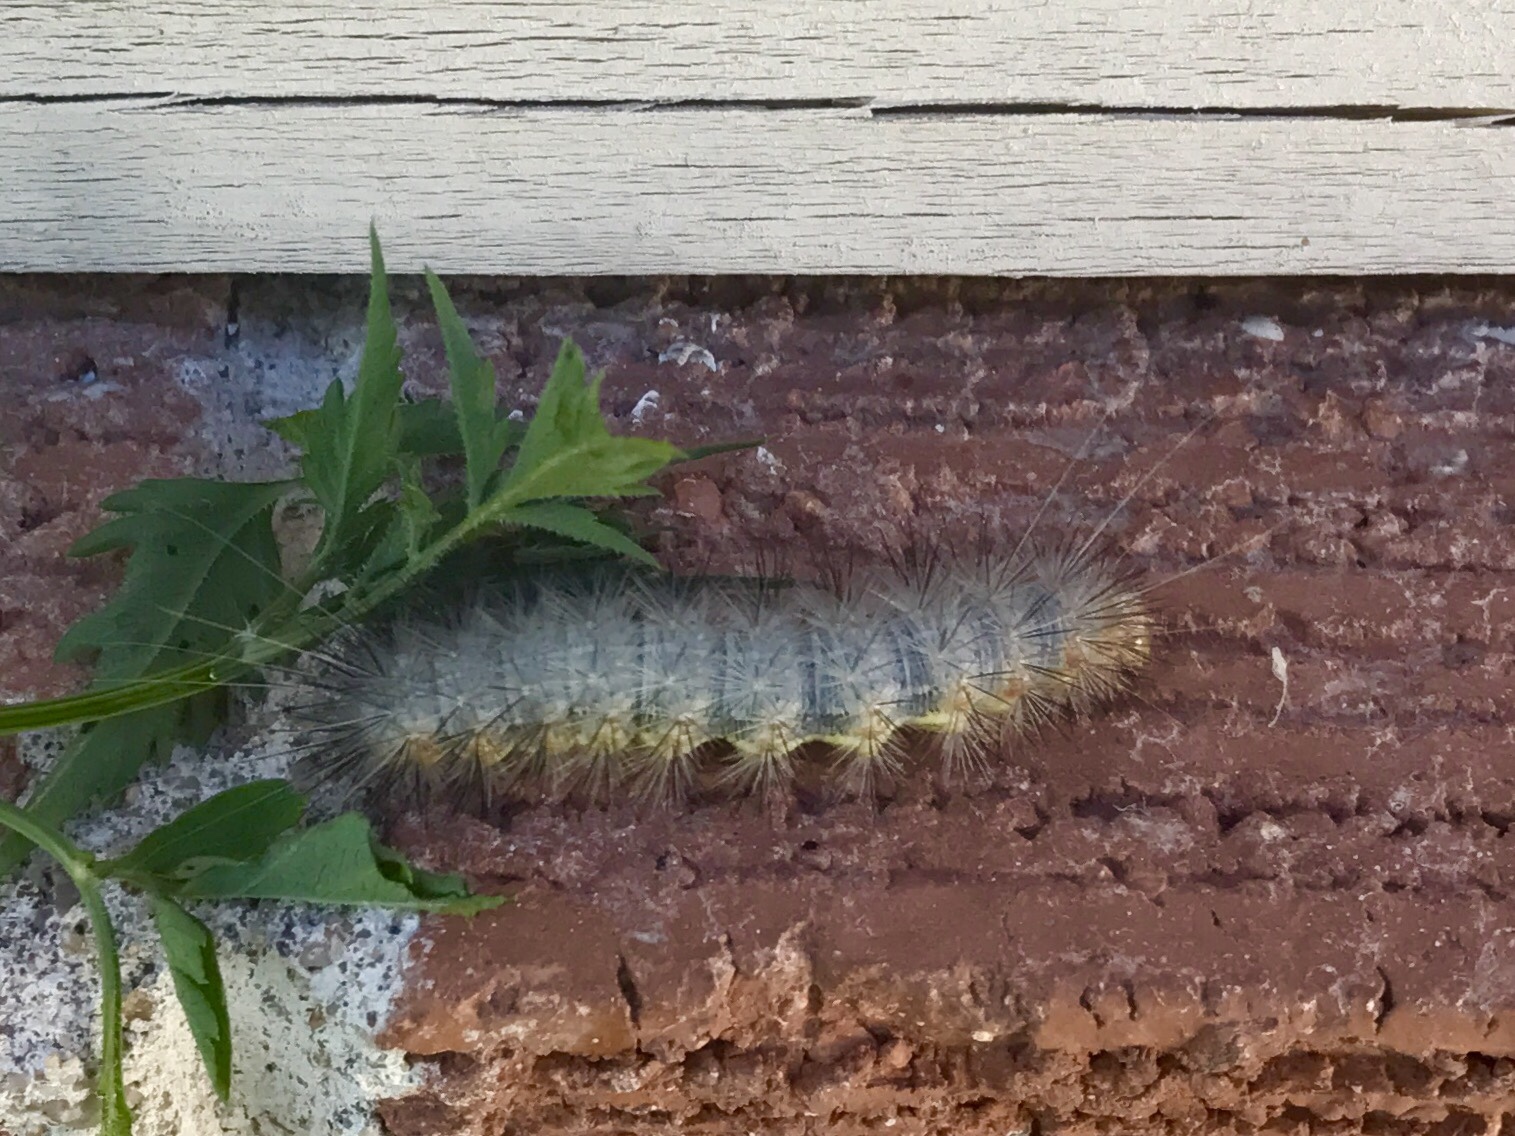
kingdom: Animalia
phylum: Arthropoda
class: Insecta
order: Lepidoptera
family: Erebidae
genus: Hypercompe
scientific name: Hypercompe suffusa
